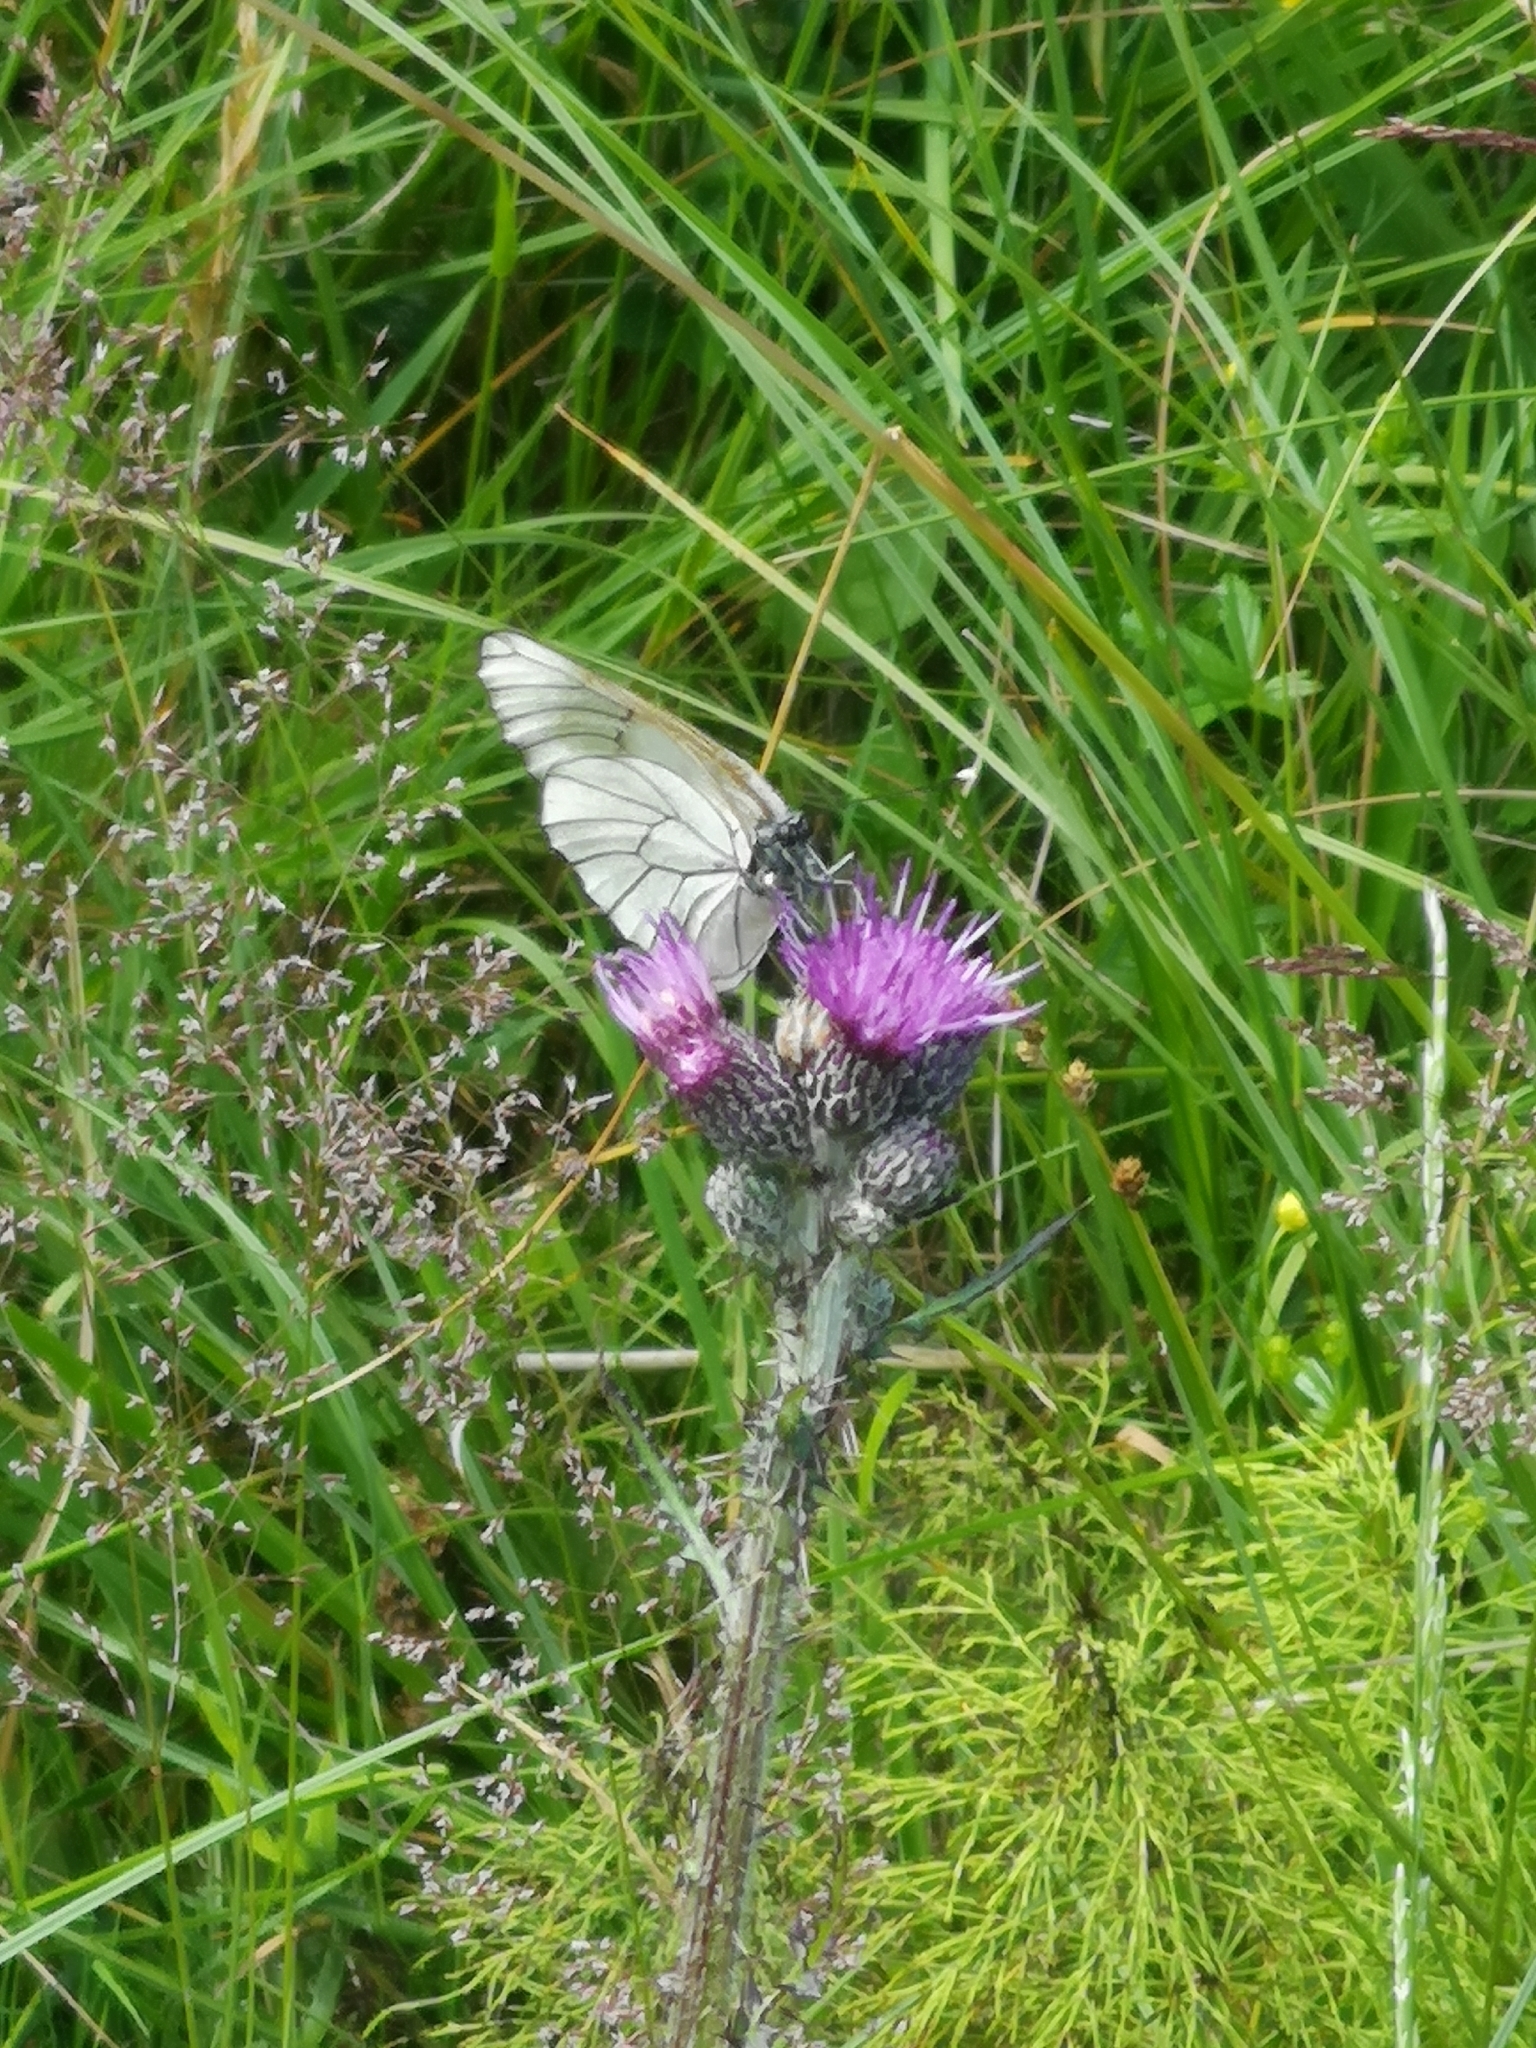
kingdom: Animalia
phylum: Arthropoda
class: Insecta
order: Lepidoptera
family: Pieridae
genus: Aporia
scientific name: Aporia crataegi
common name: Black-veined white
